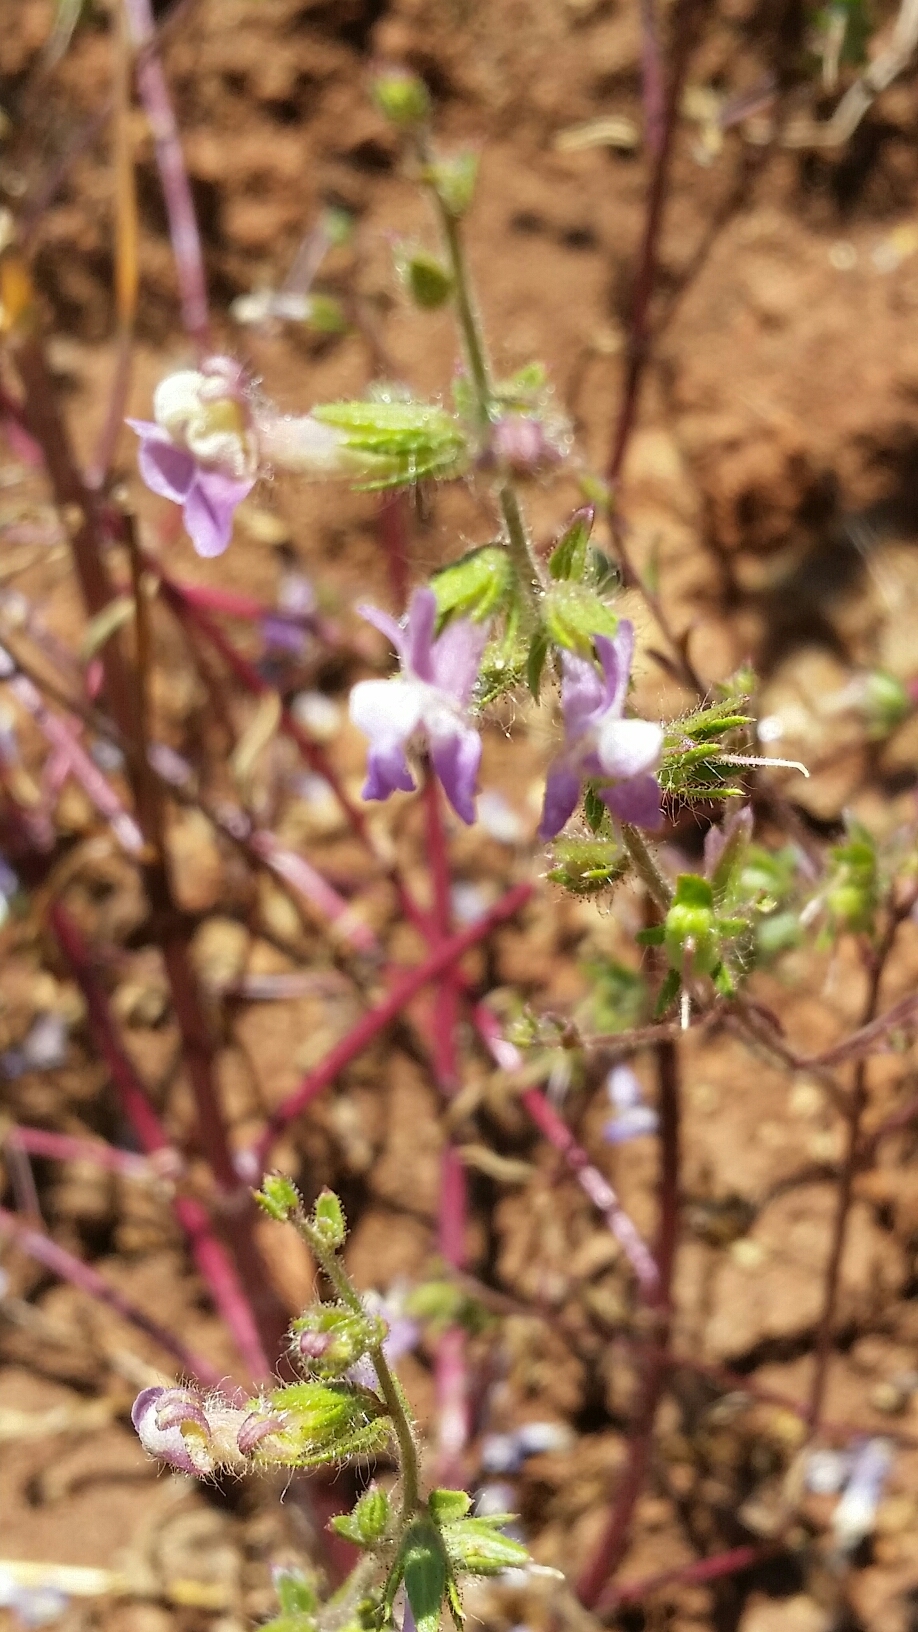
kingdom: Plantae
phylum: Tracheophyta
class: Magnoliopsida
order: Lamiales
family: Plantaginaceae
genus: Sairocarpus
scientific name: Sairocarpus vexillocalyculatus
